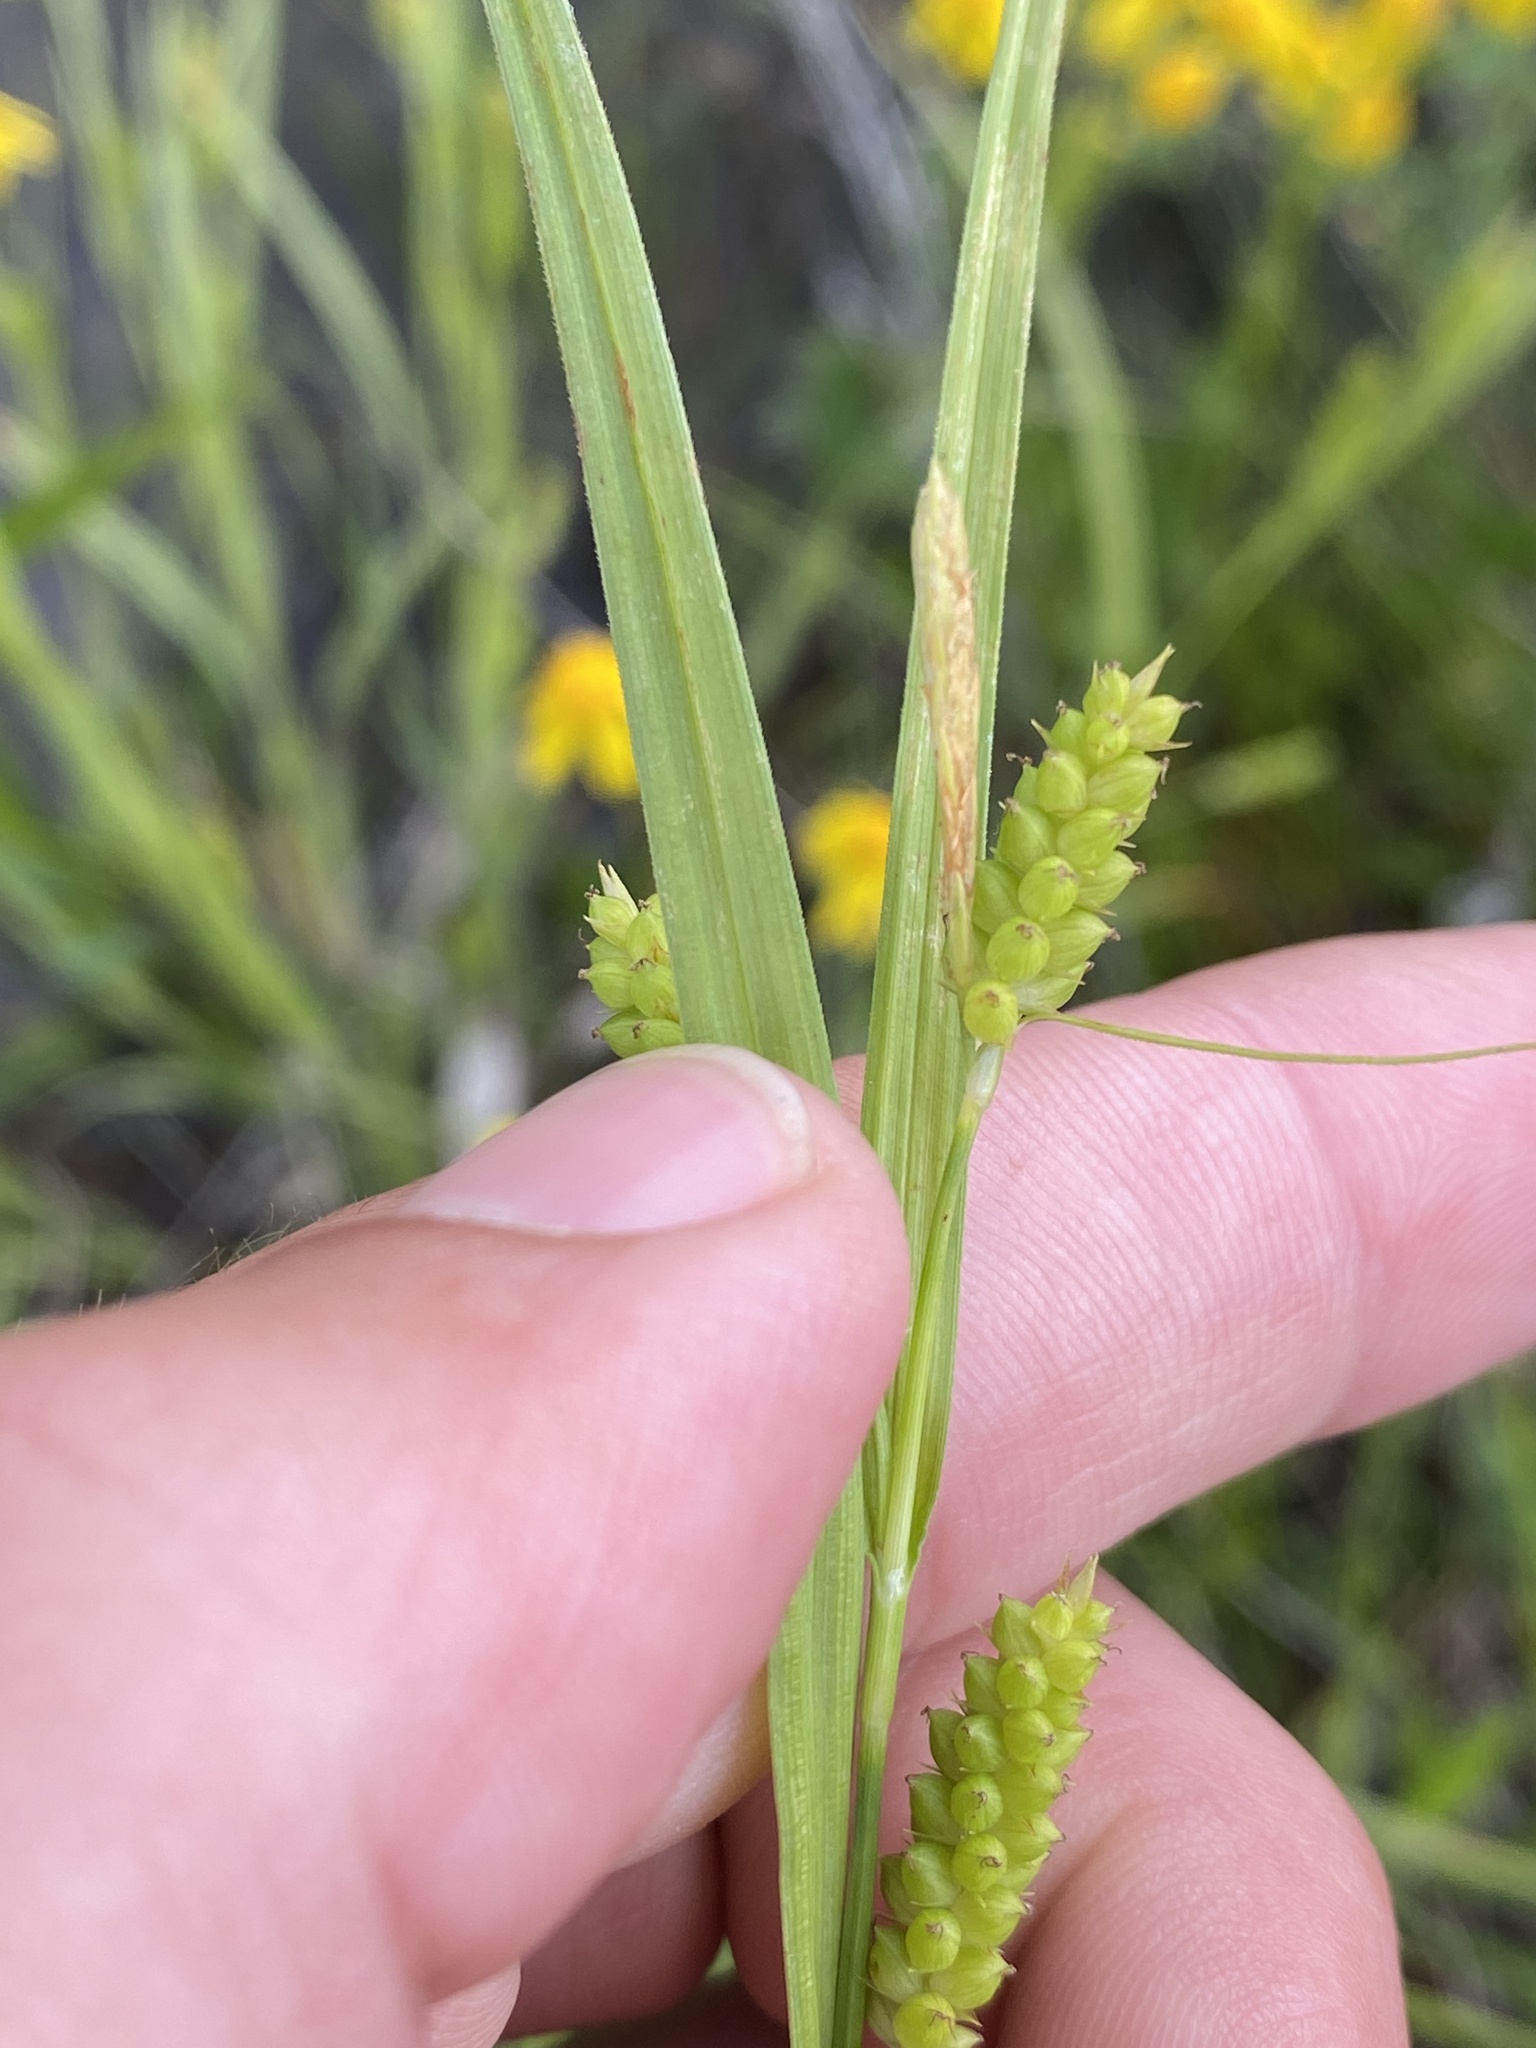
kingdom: Plantae
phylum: Tracheophyta
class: Liliopsida
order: Poales
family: Cyperaceae
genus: Carex
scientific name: Carex granularis
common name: Granular sedge
